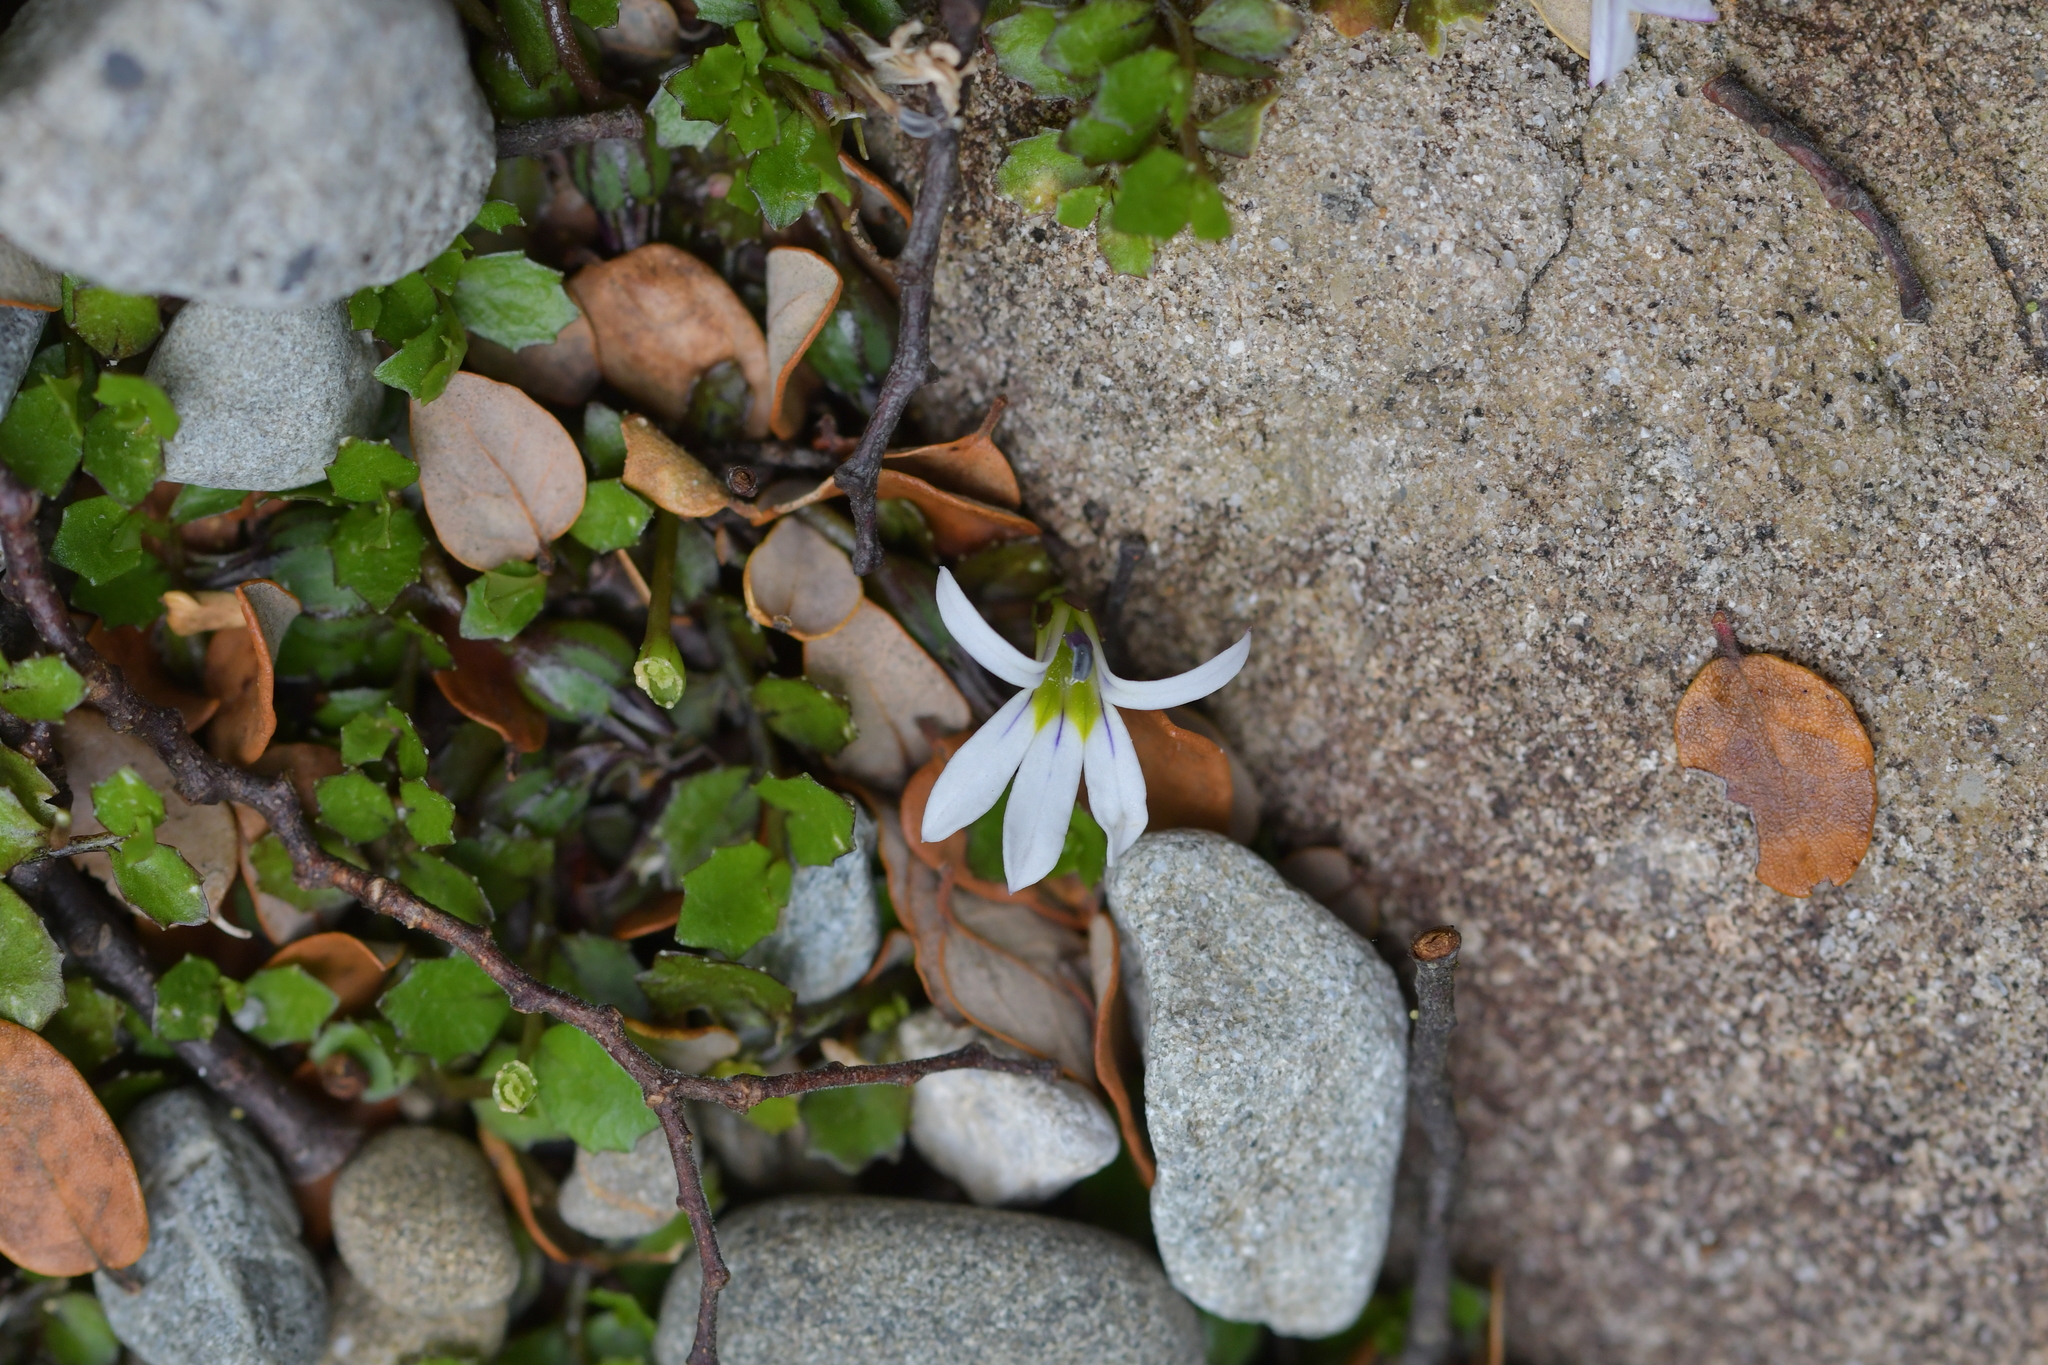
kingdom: Plantae
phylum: Tracheophyta
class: Magnoliopsida
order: Asterales
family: Campanulaceae
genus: Lobelia
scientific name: Lobelia angulata
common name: Lawn lobelia
